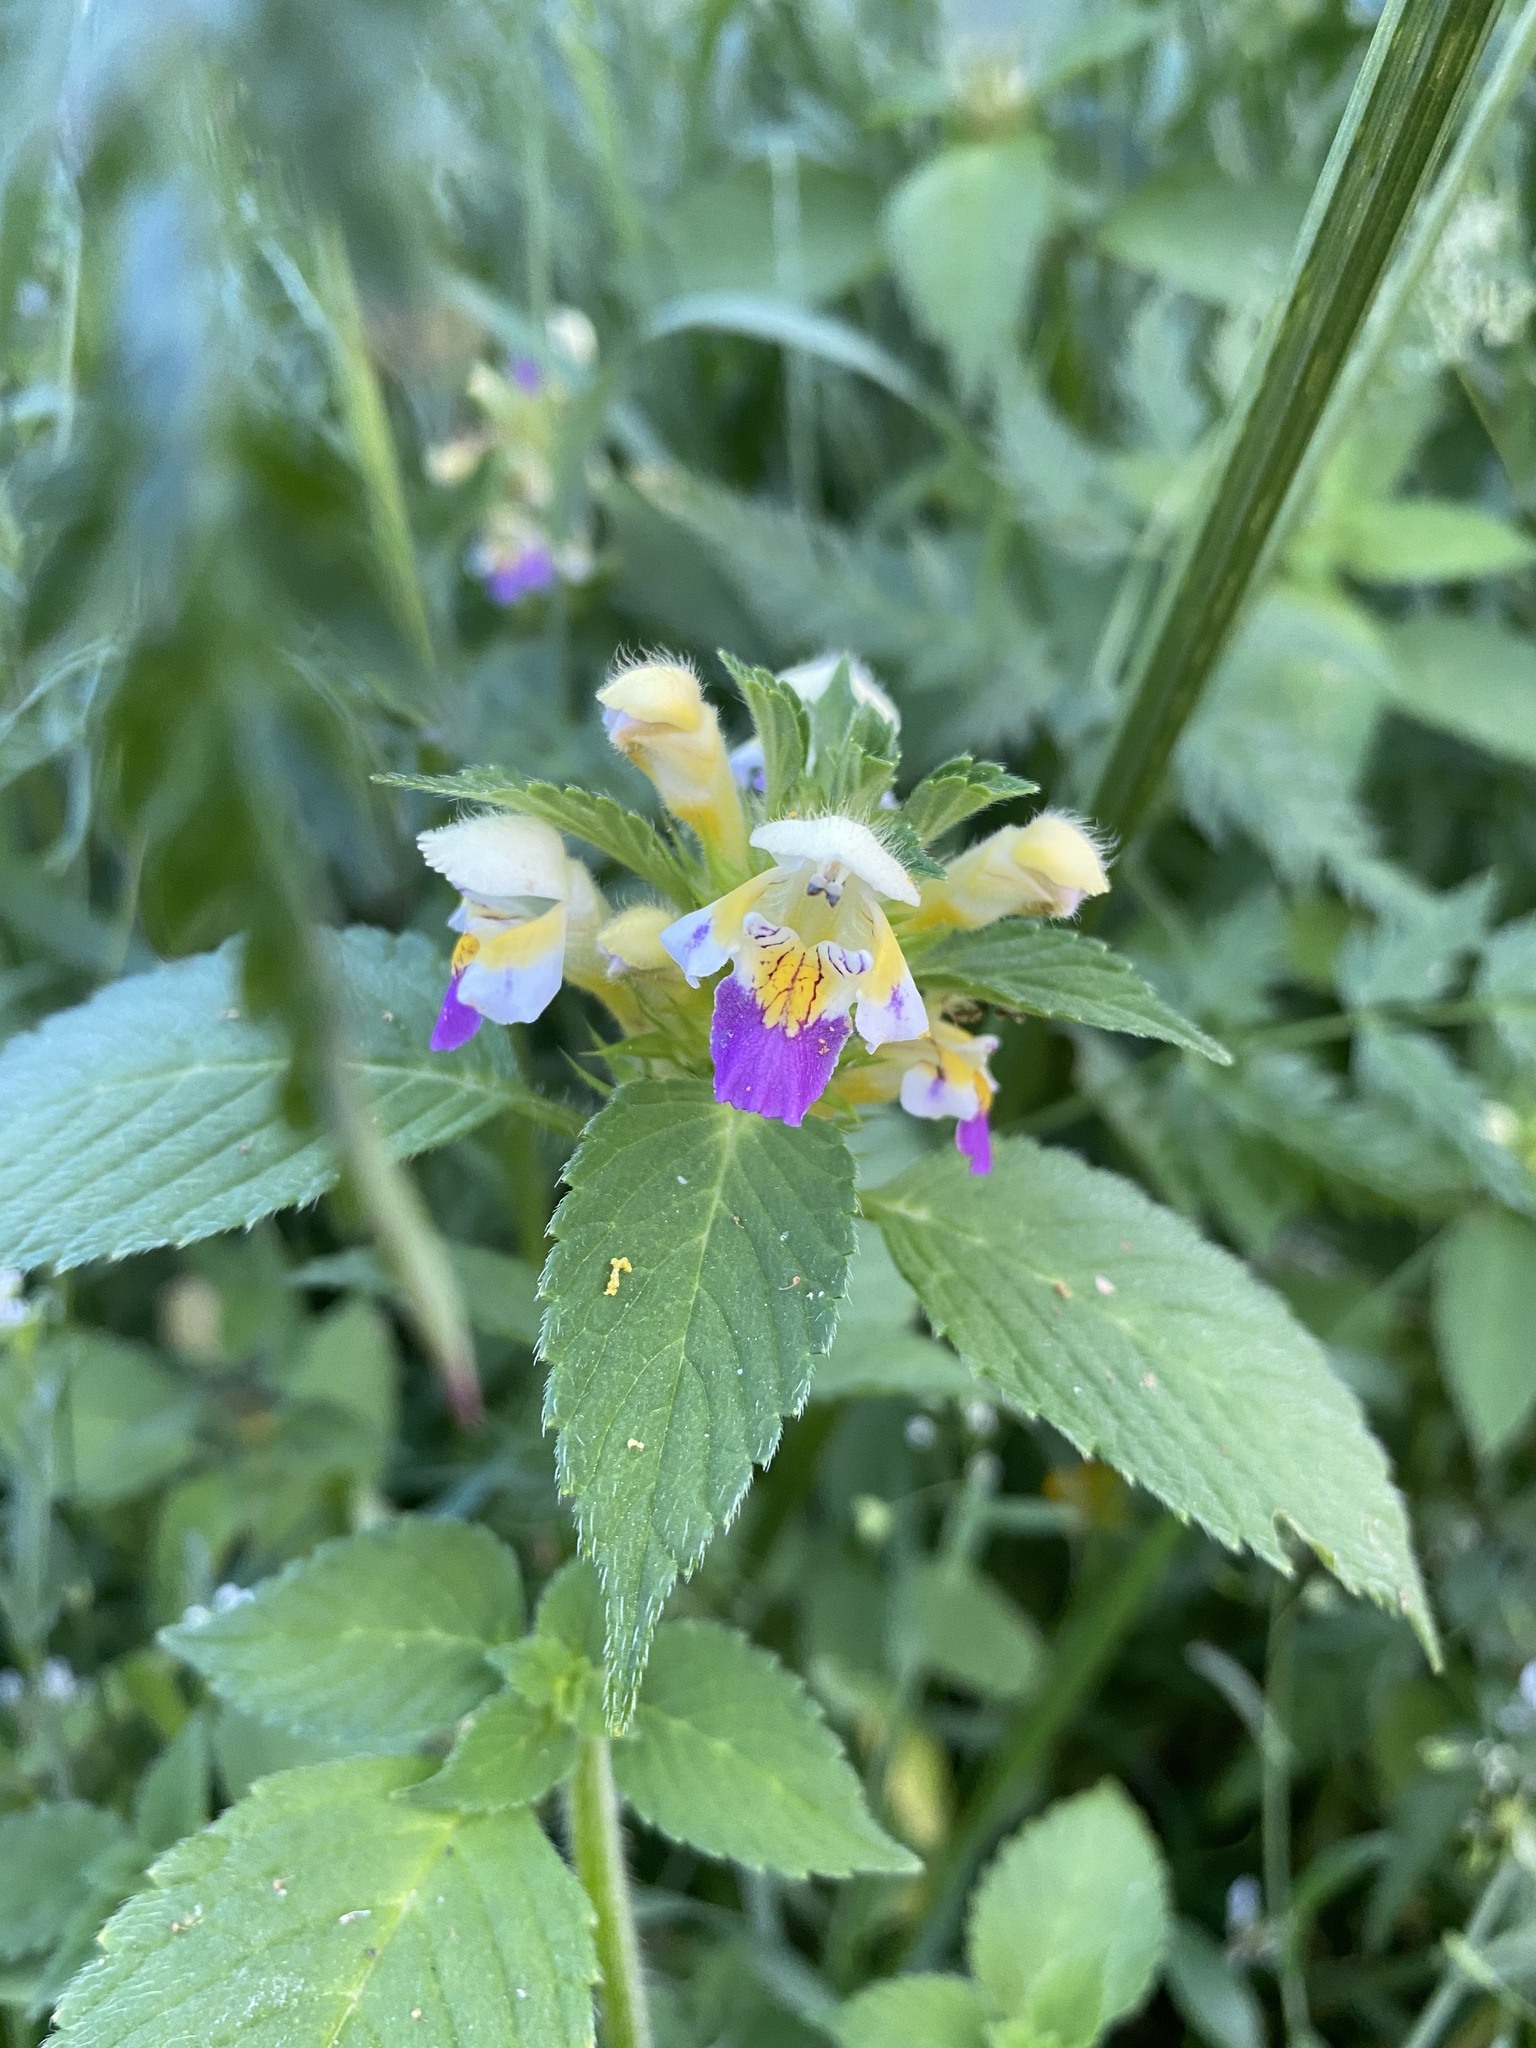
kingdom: Plantae
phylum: Tracheophyta
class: Magnoliopsida
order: Lamiales
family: Lamiaceae
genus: Galeopsis
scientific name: Galeopsis speciosa
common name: Large-flowered hemp-nettle
